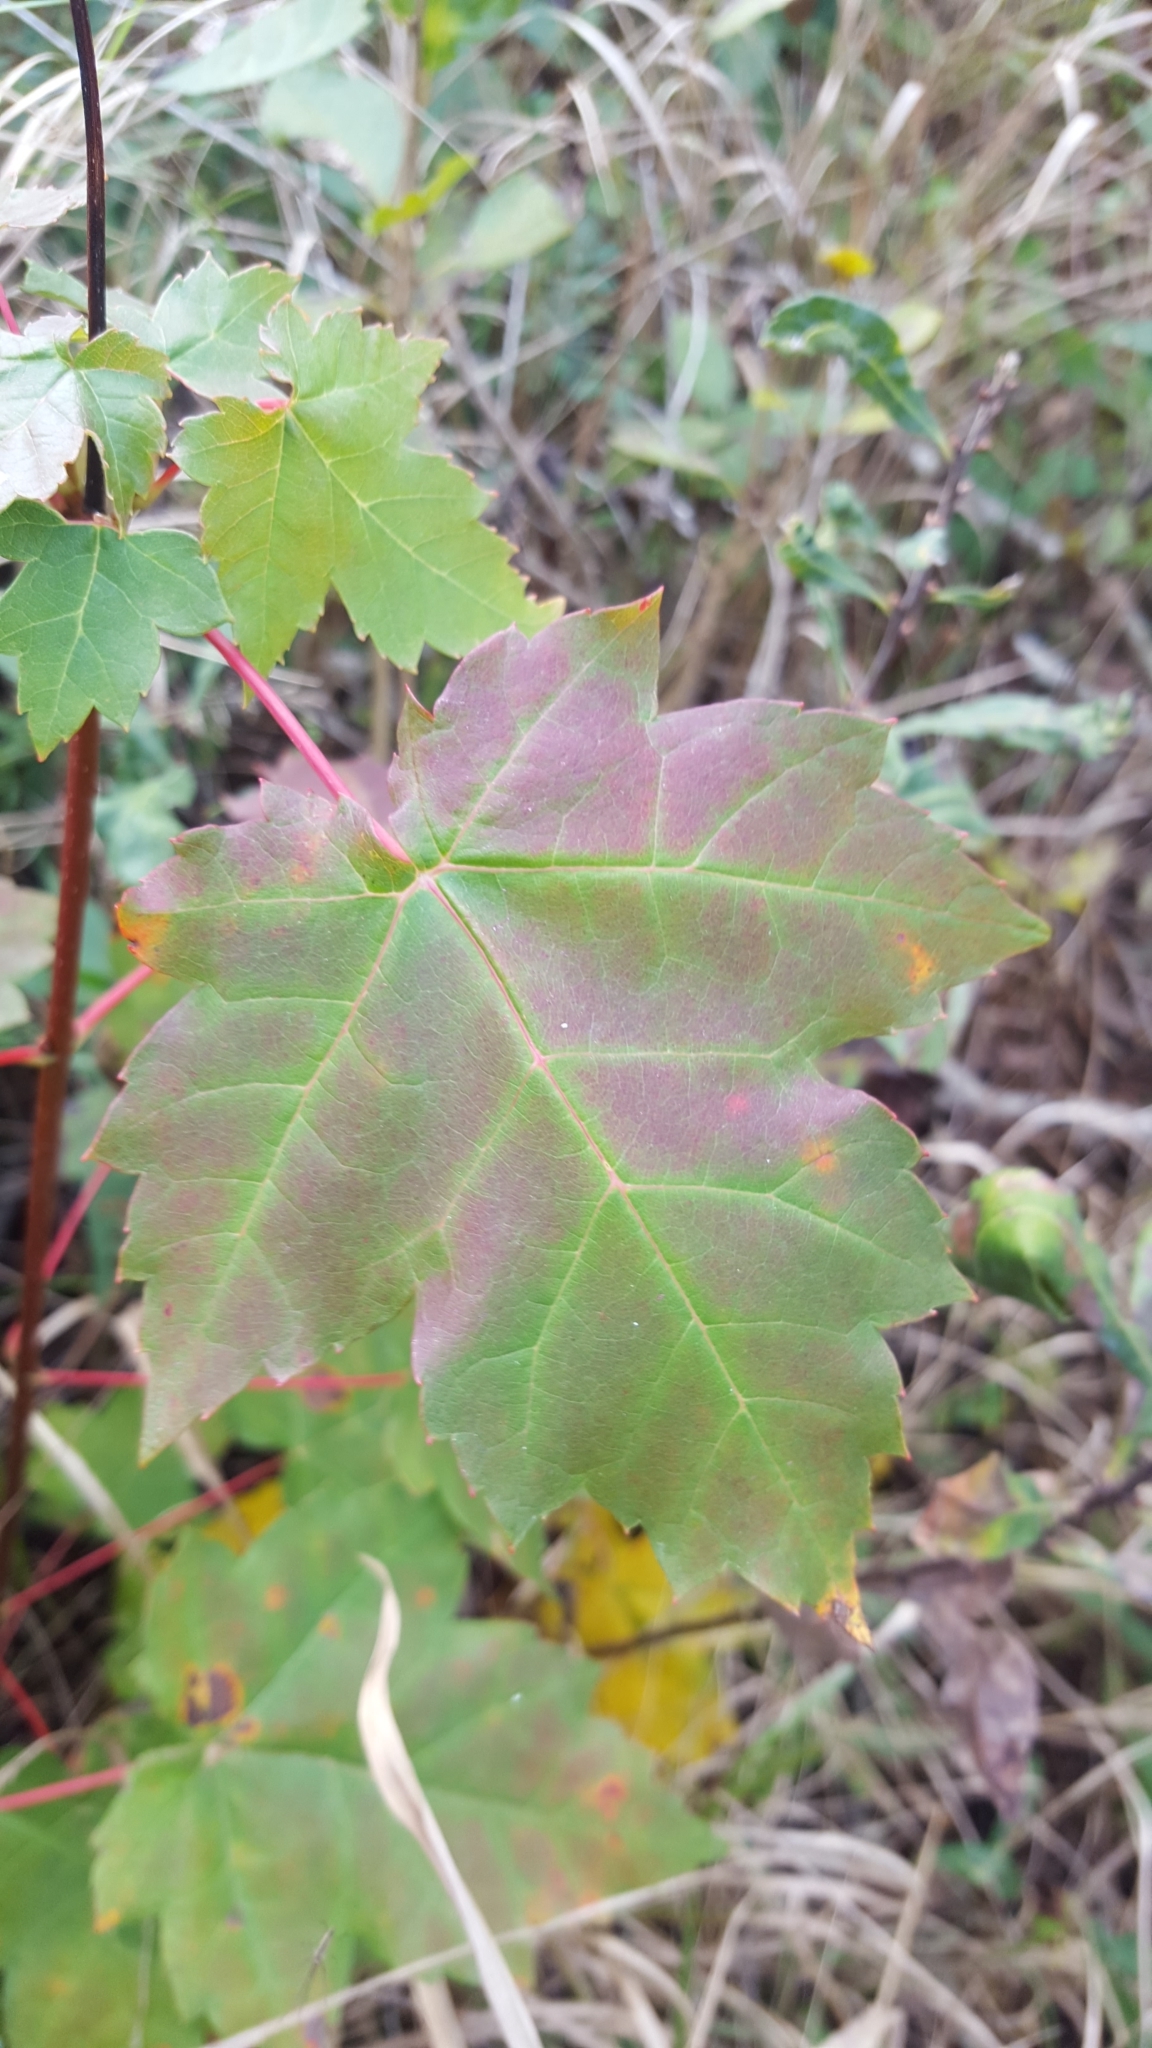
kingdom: Plantae
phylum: Tracheophyta
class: Magnoliopsida
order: Sapindales
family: Sapindaceae
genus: Acer
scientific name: Acer rubrum
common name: Red maple
